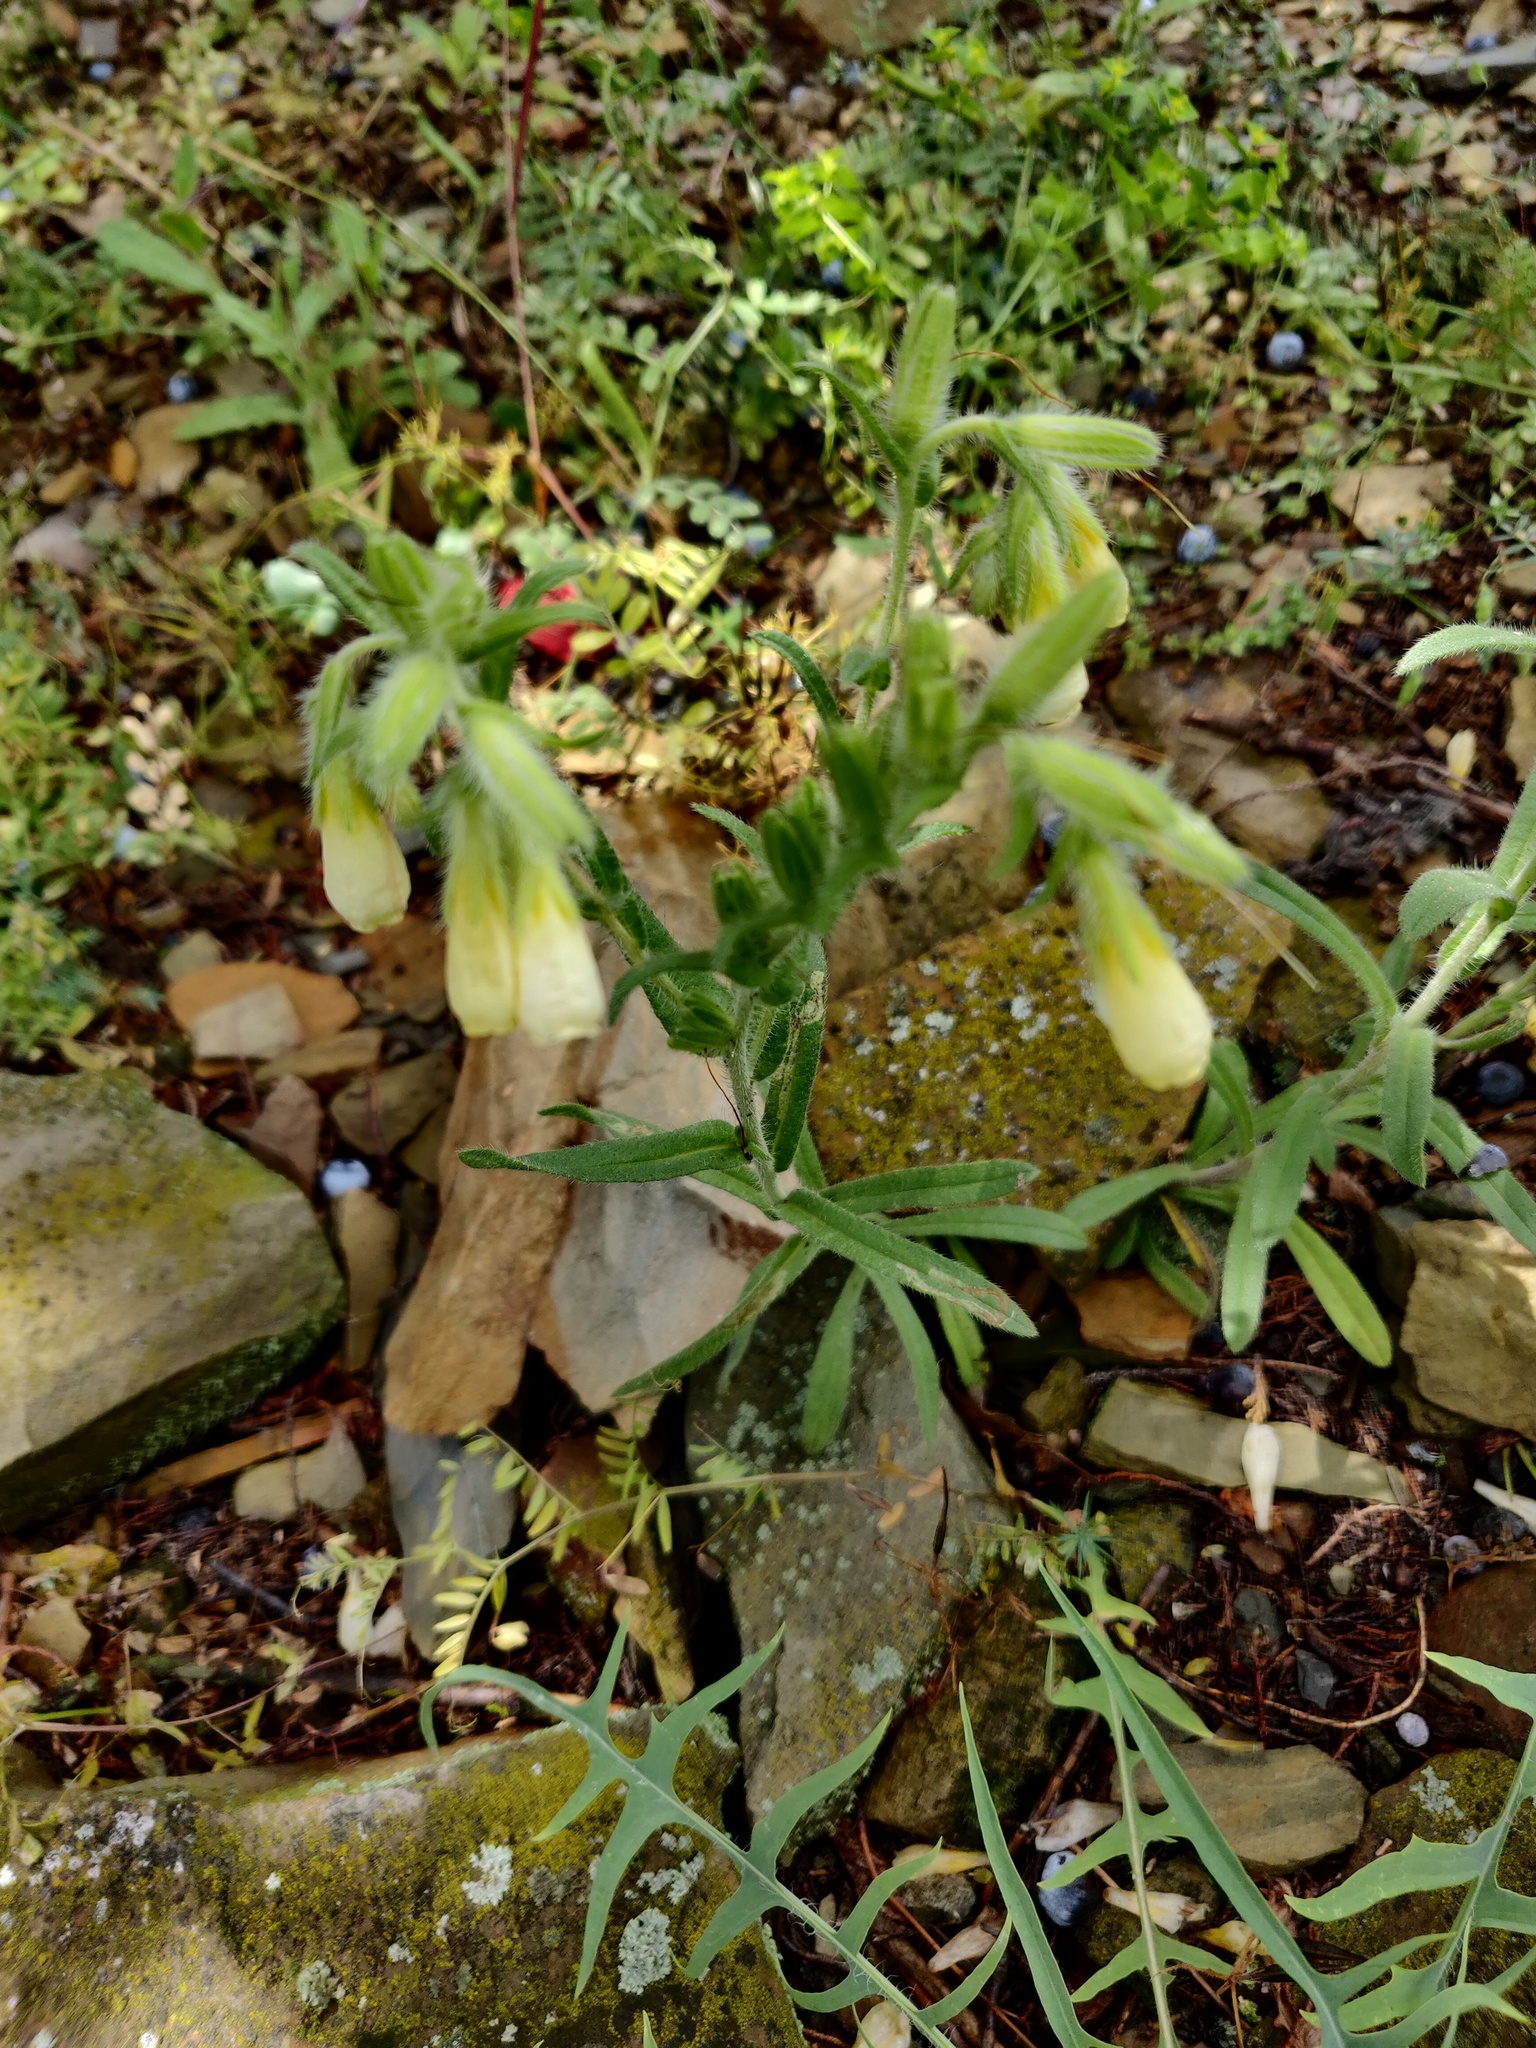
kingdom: Plantae
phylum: Tracheophyta
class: Magnoliopsida
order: Boraginales
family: Boraginaceae
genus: Onosma
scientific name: Onosma aucheriana
